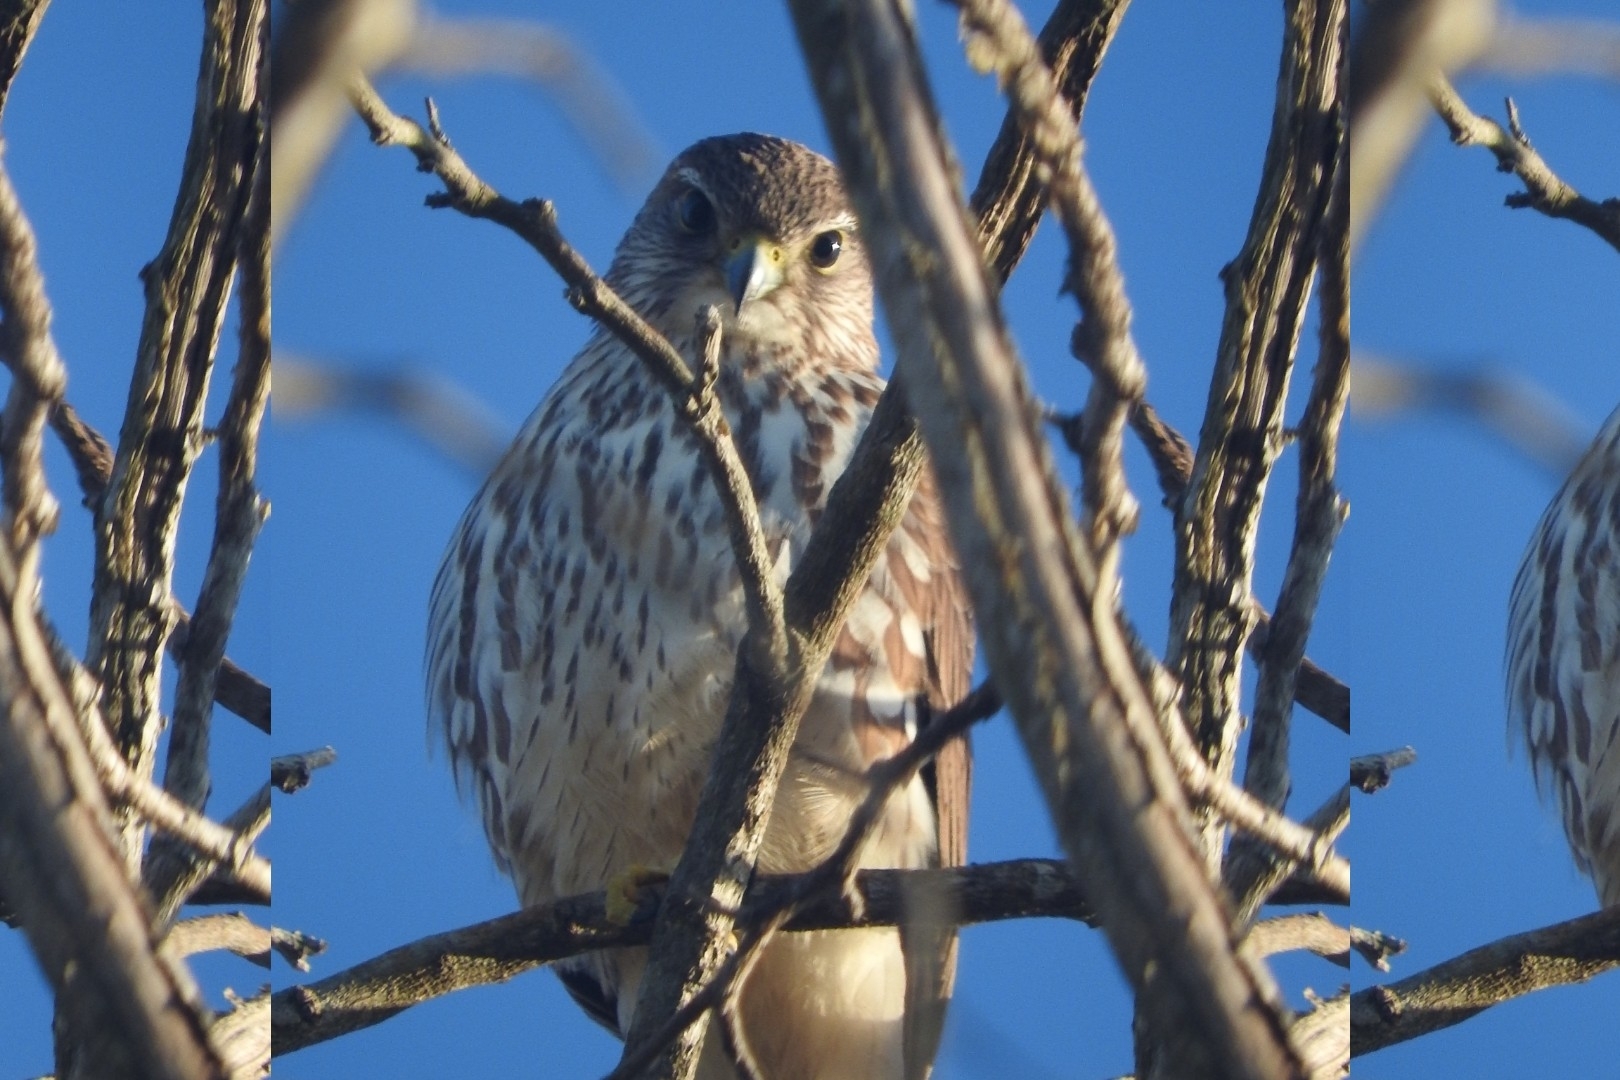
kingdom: Animalia
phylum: Chordata
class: Aves
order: Falconiformes
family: Falconidae
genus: Falco
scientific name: Falco columbarius
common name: Merlin
